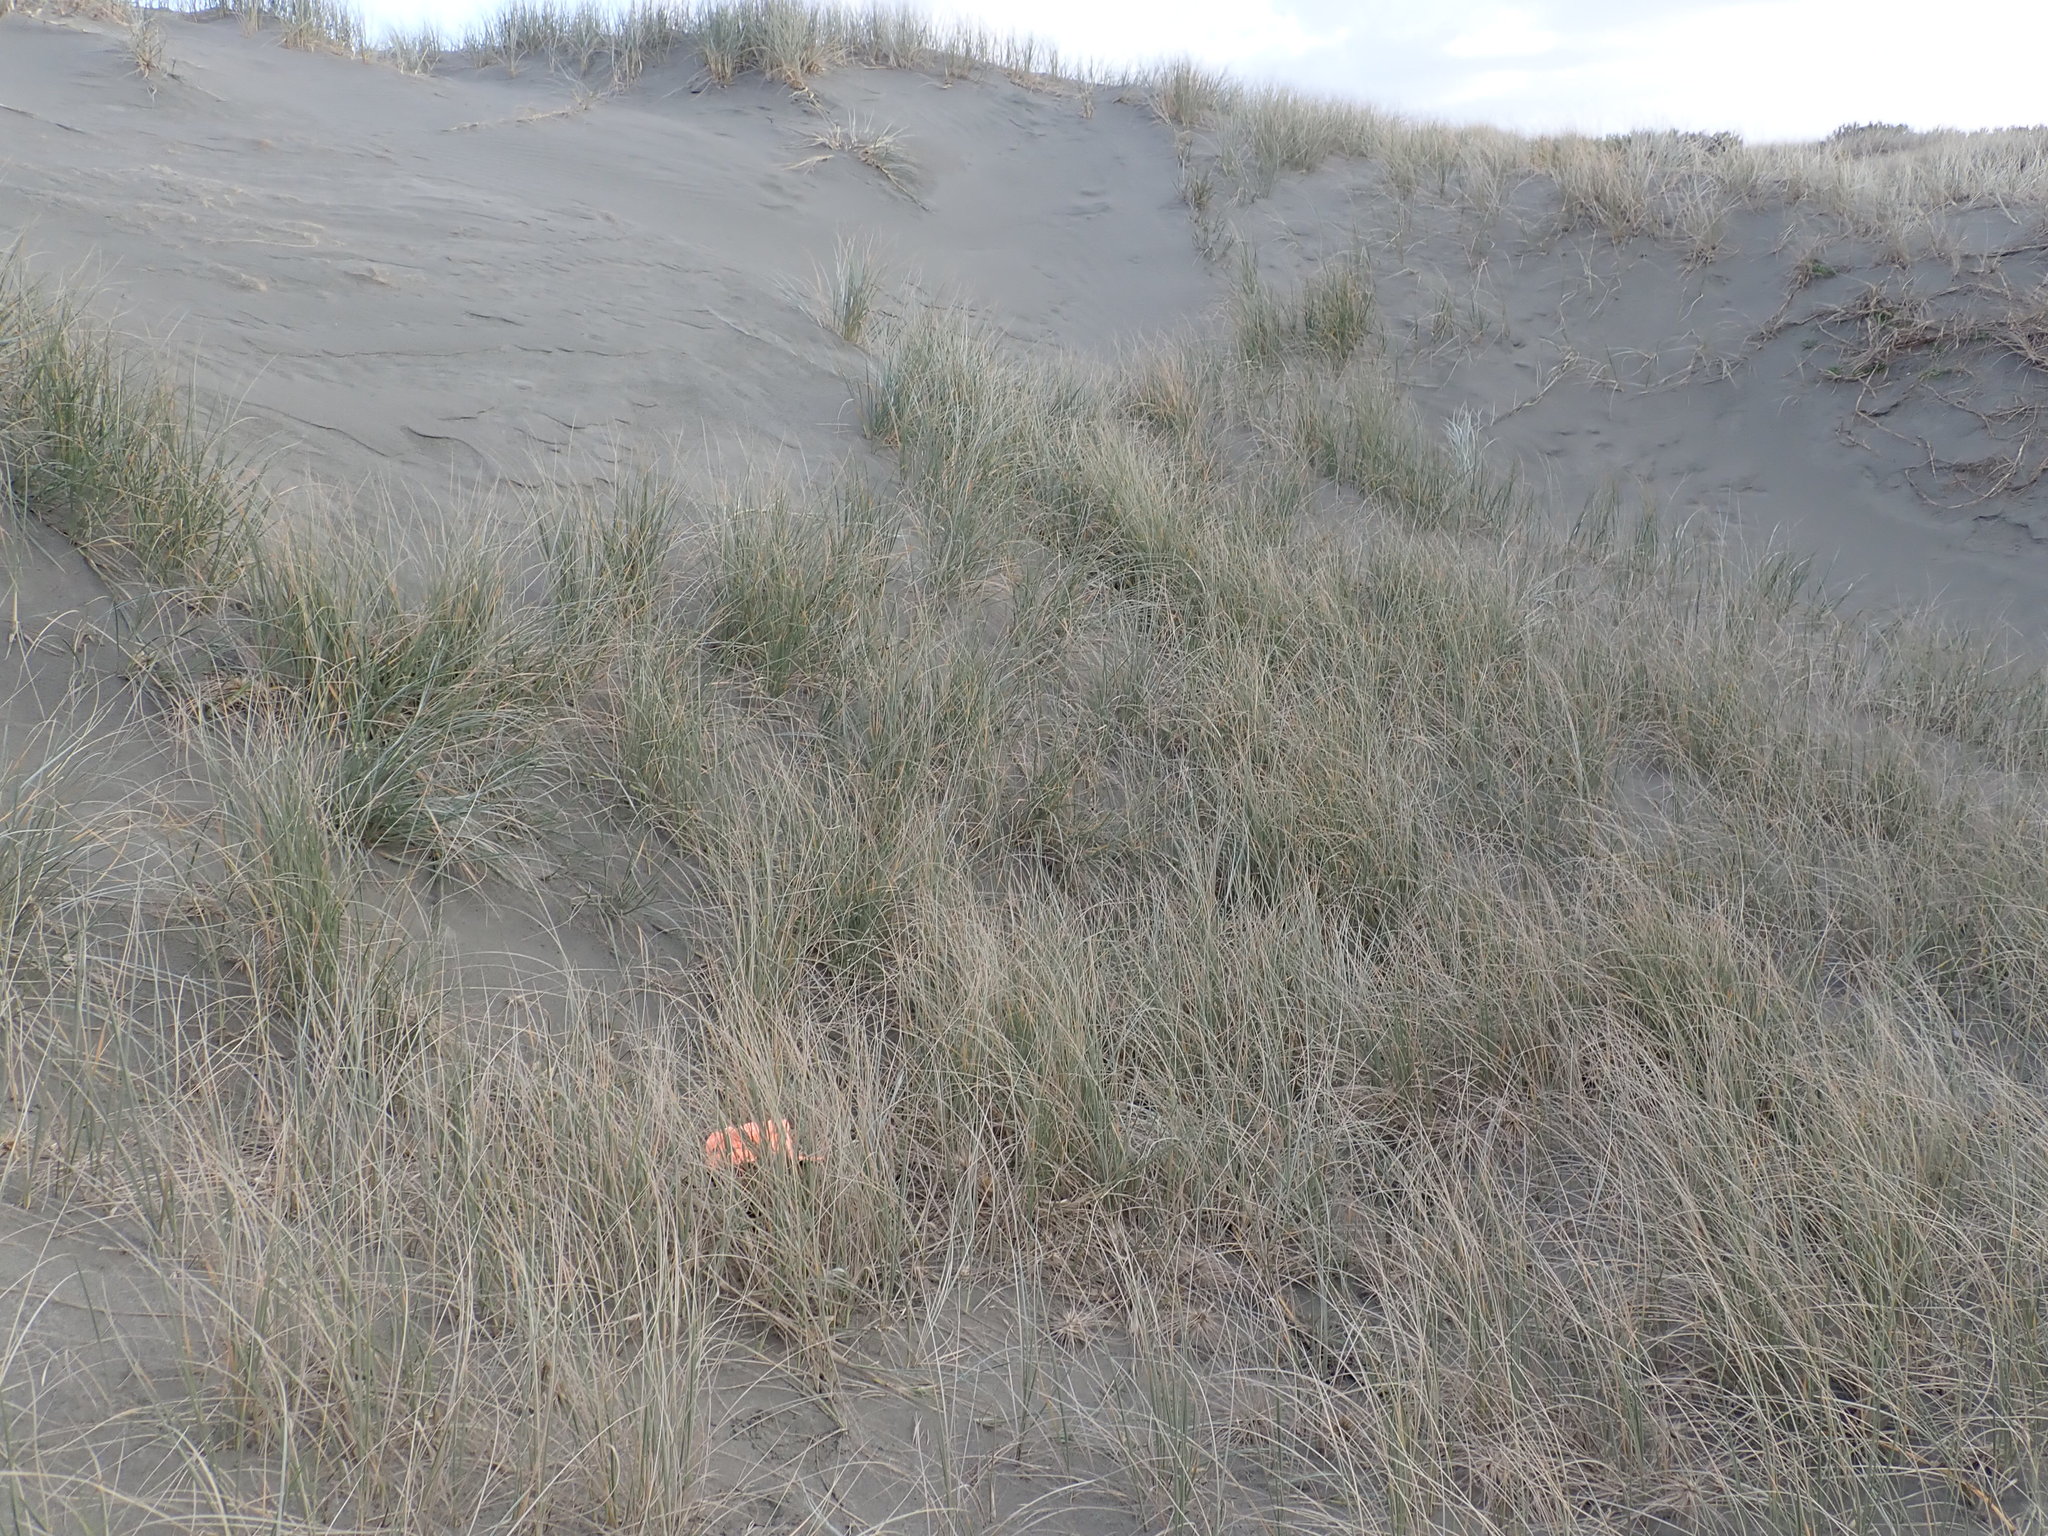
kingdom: Animalia
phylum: Arthropoda
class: Arachnida
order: Araneae
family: Theridiidae
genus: Steatoda
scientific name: Steatoda lepida
